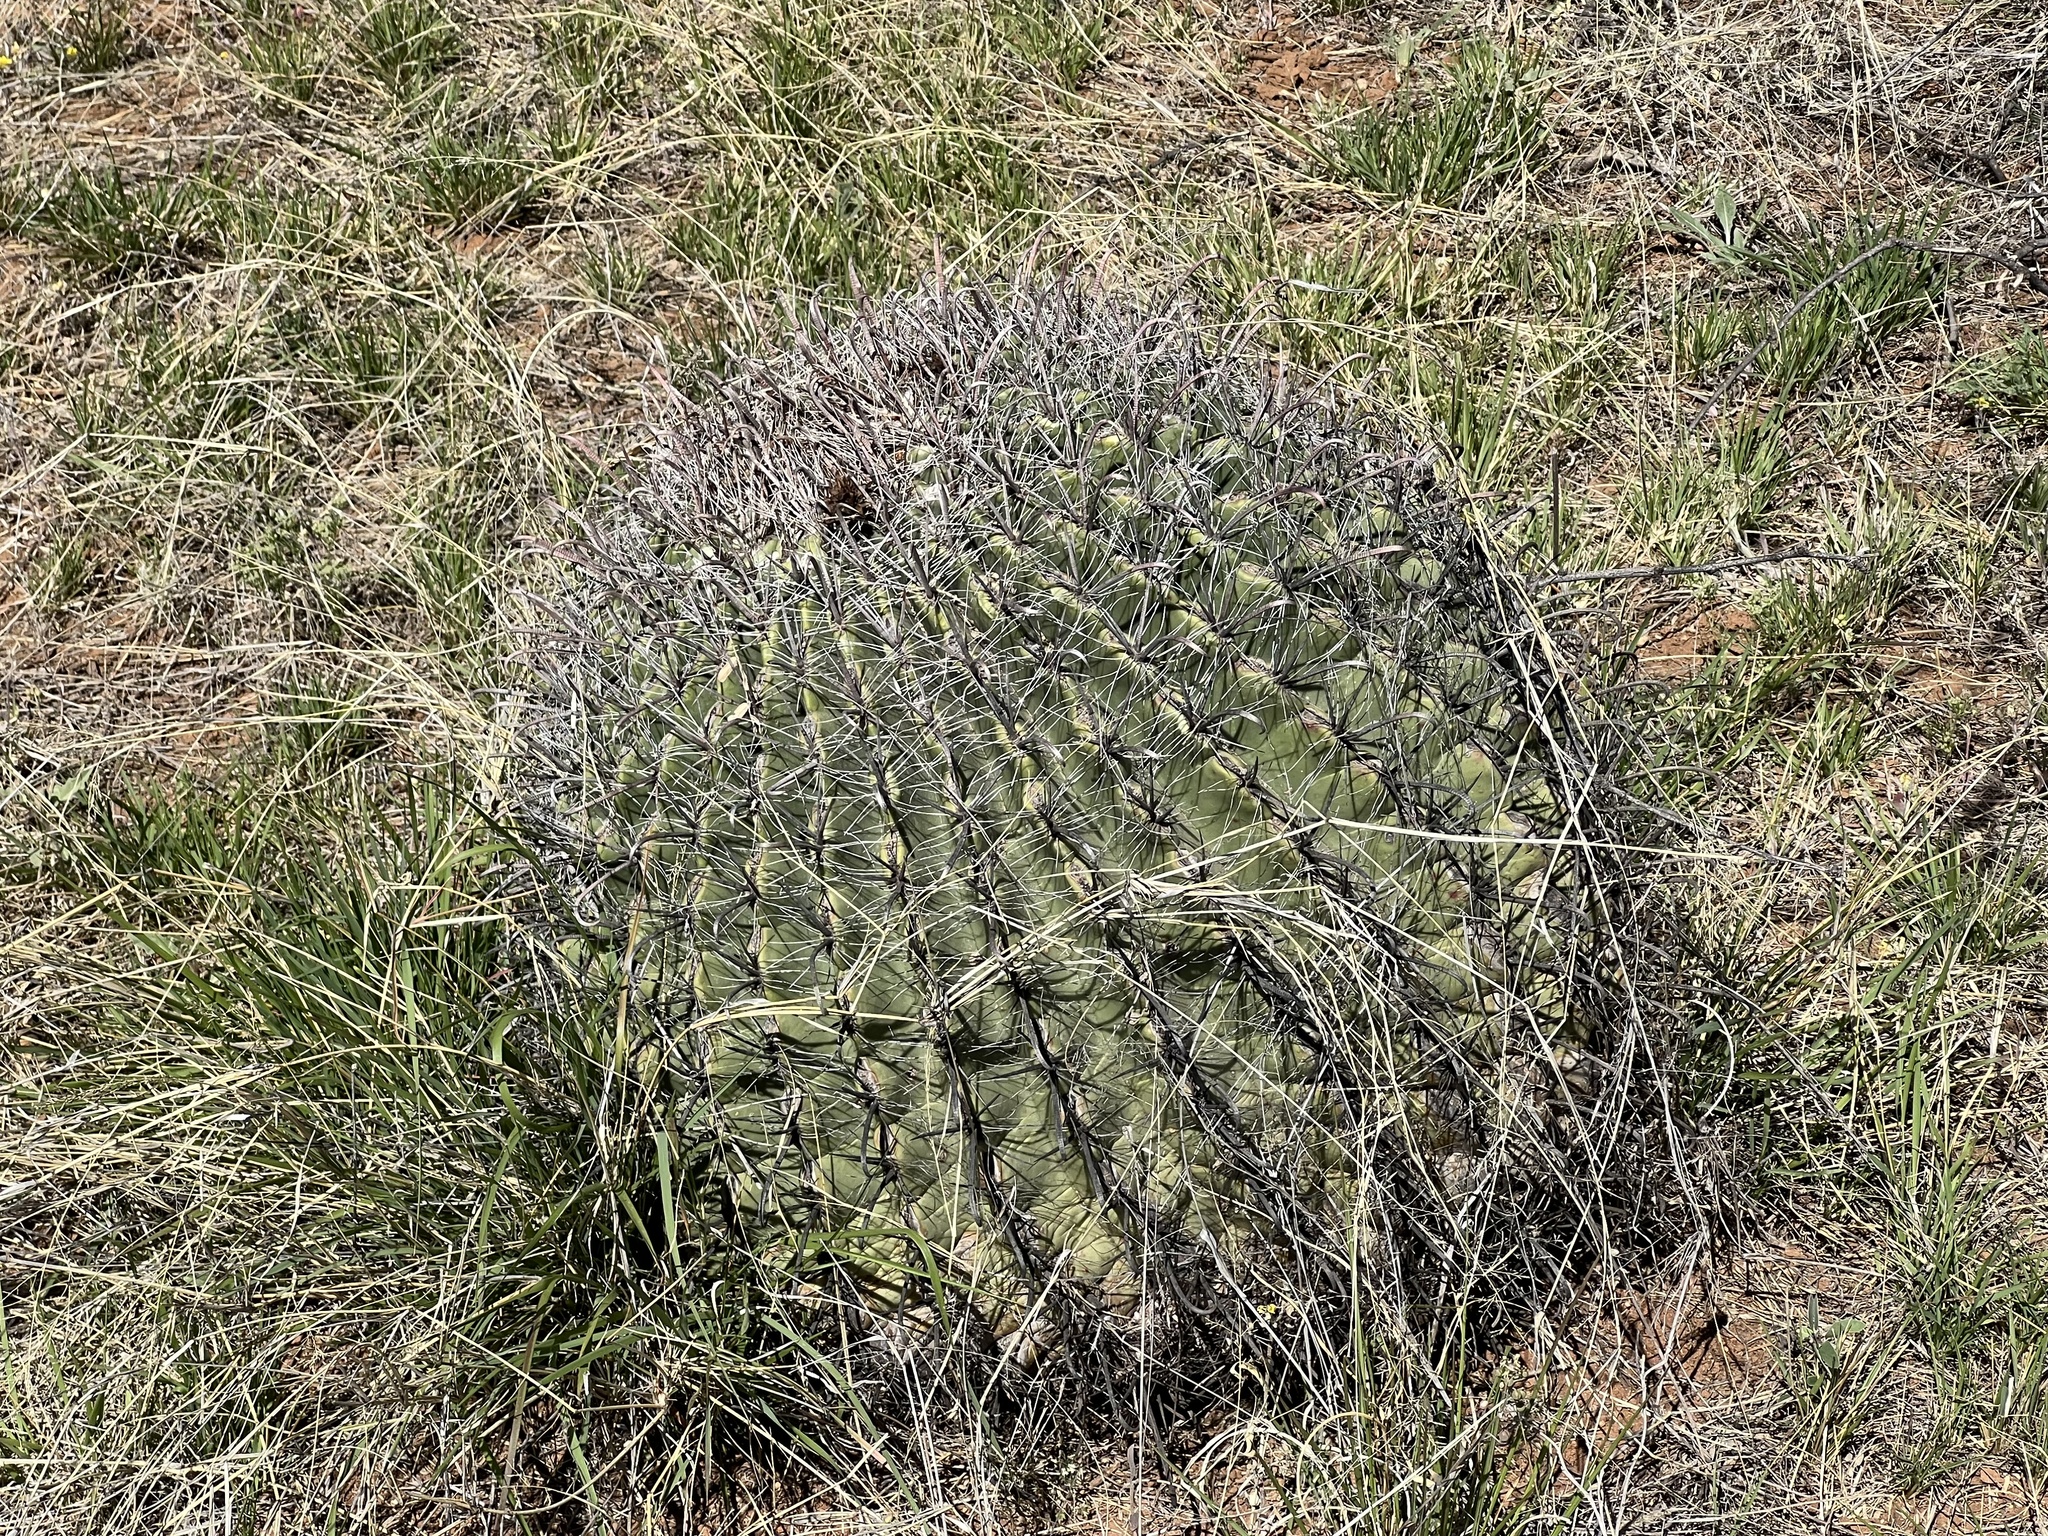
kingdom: Plantae
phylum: Tracheophyta
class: Magnoliopsida
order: Caryophyllales
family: Cactaceae
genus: Ferocactus
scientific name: Ferocactus wislizeni
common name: Candy barrel cactus
